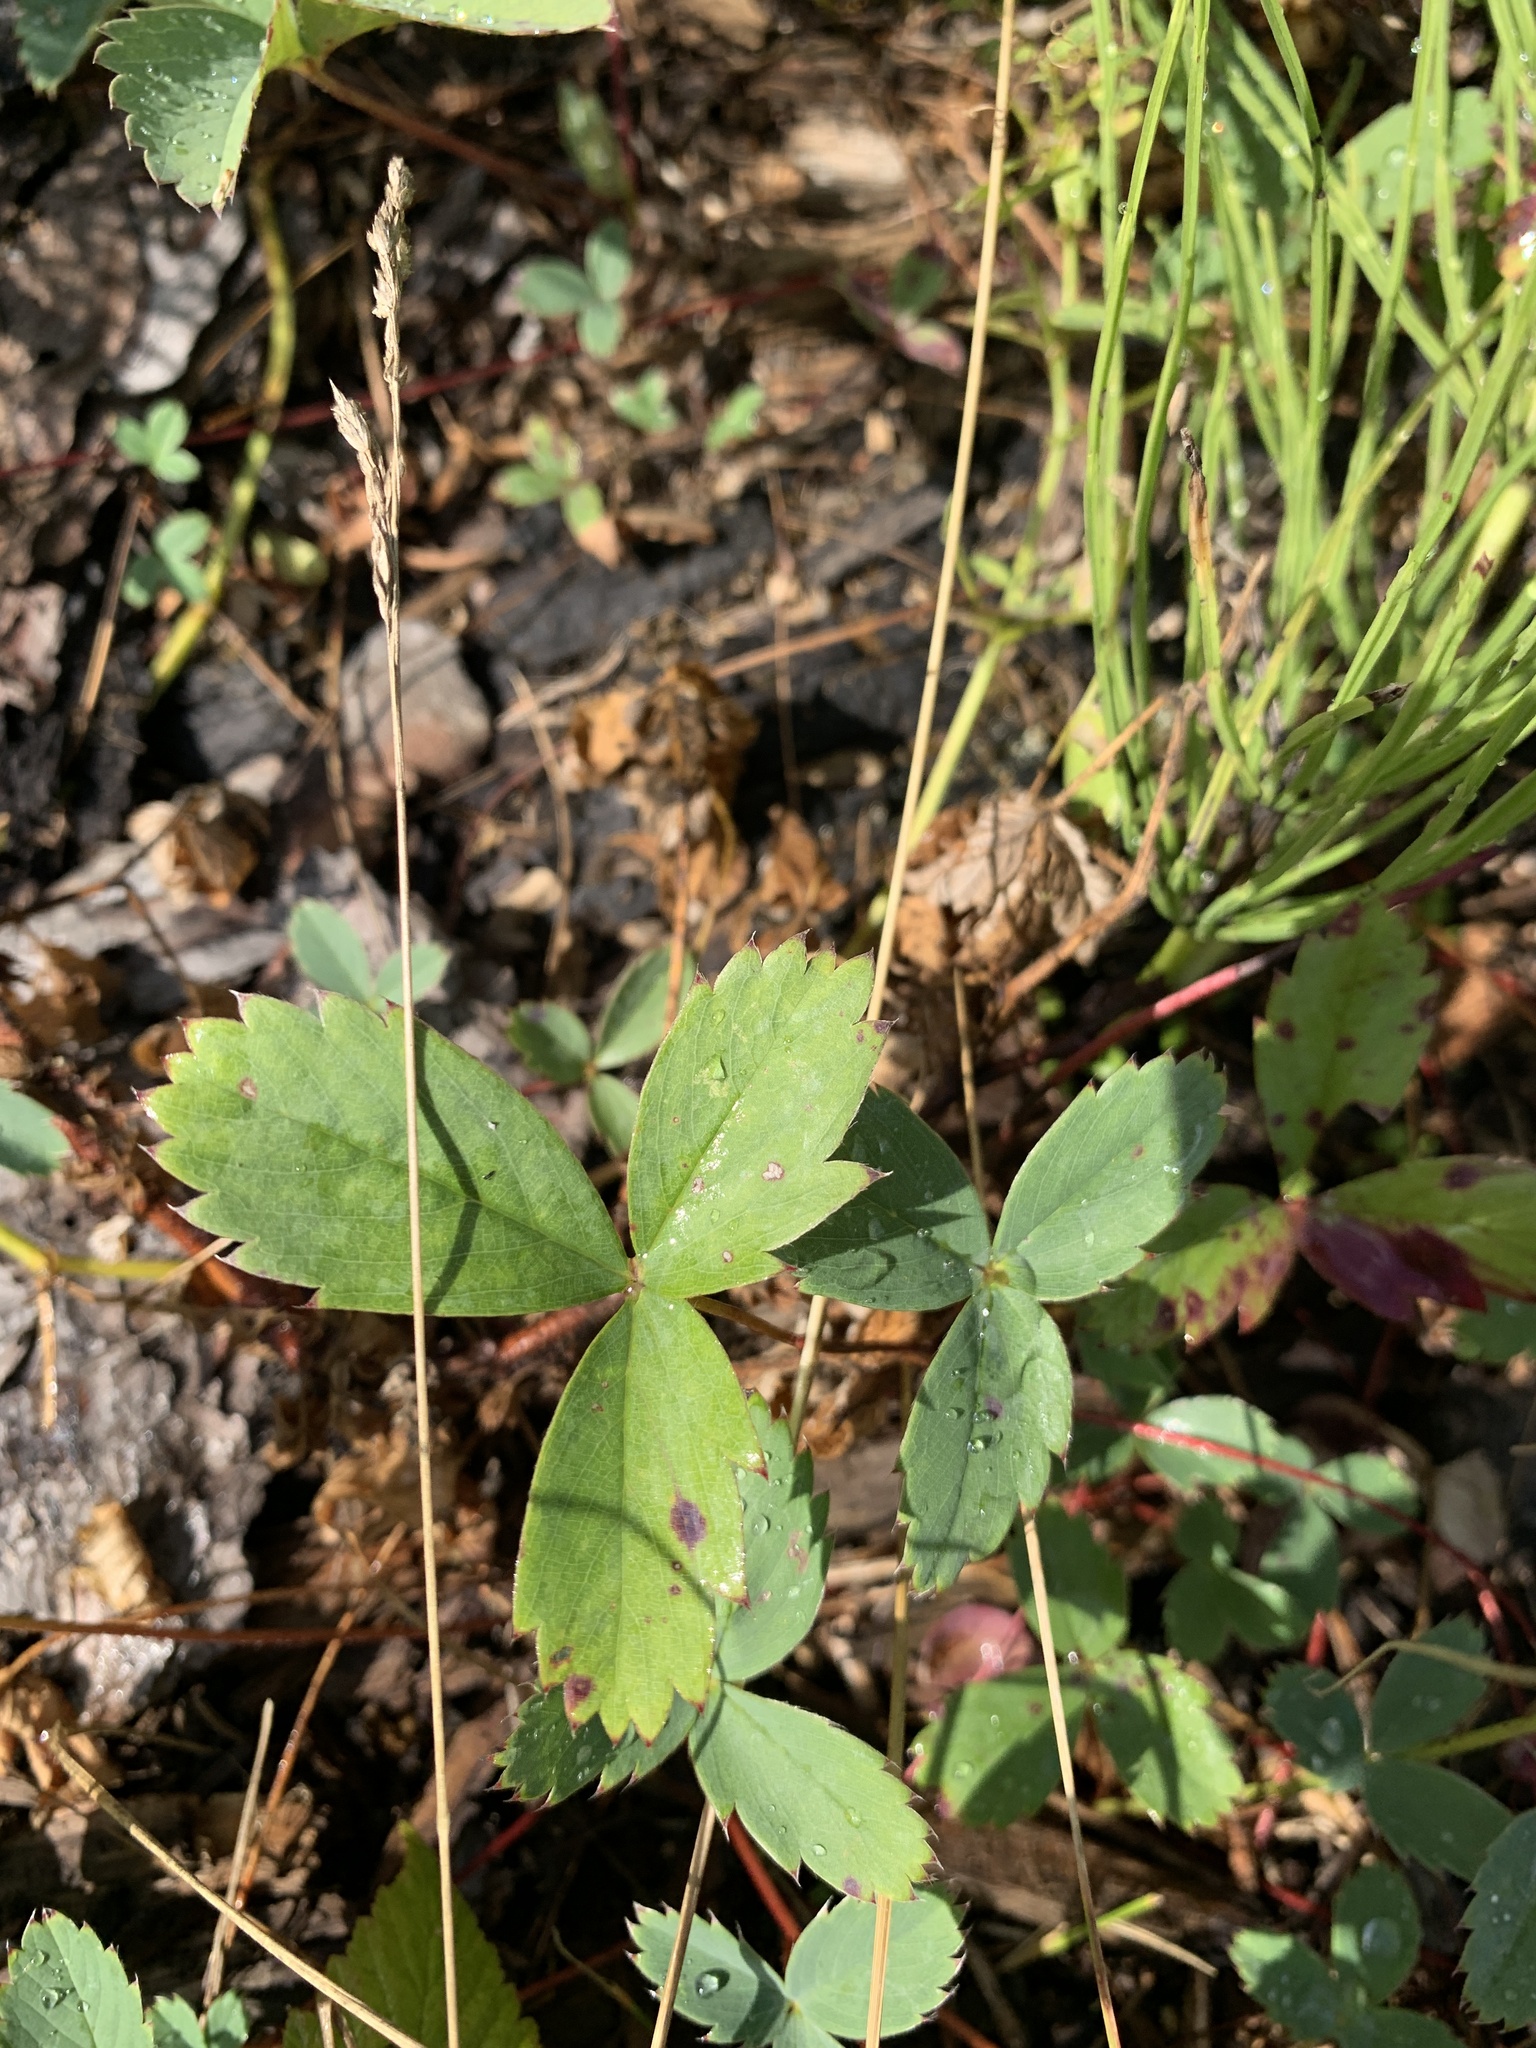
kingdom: Plantae
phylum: Tracheophyta
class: Magnoliopsida
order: Rosales
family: Rosaceae
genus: Fragaria
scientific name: Fragaria virginiana
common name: Thickleaved wild strawberry
